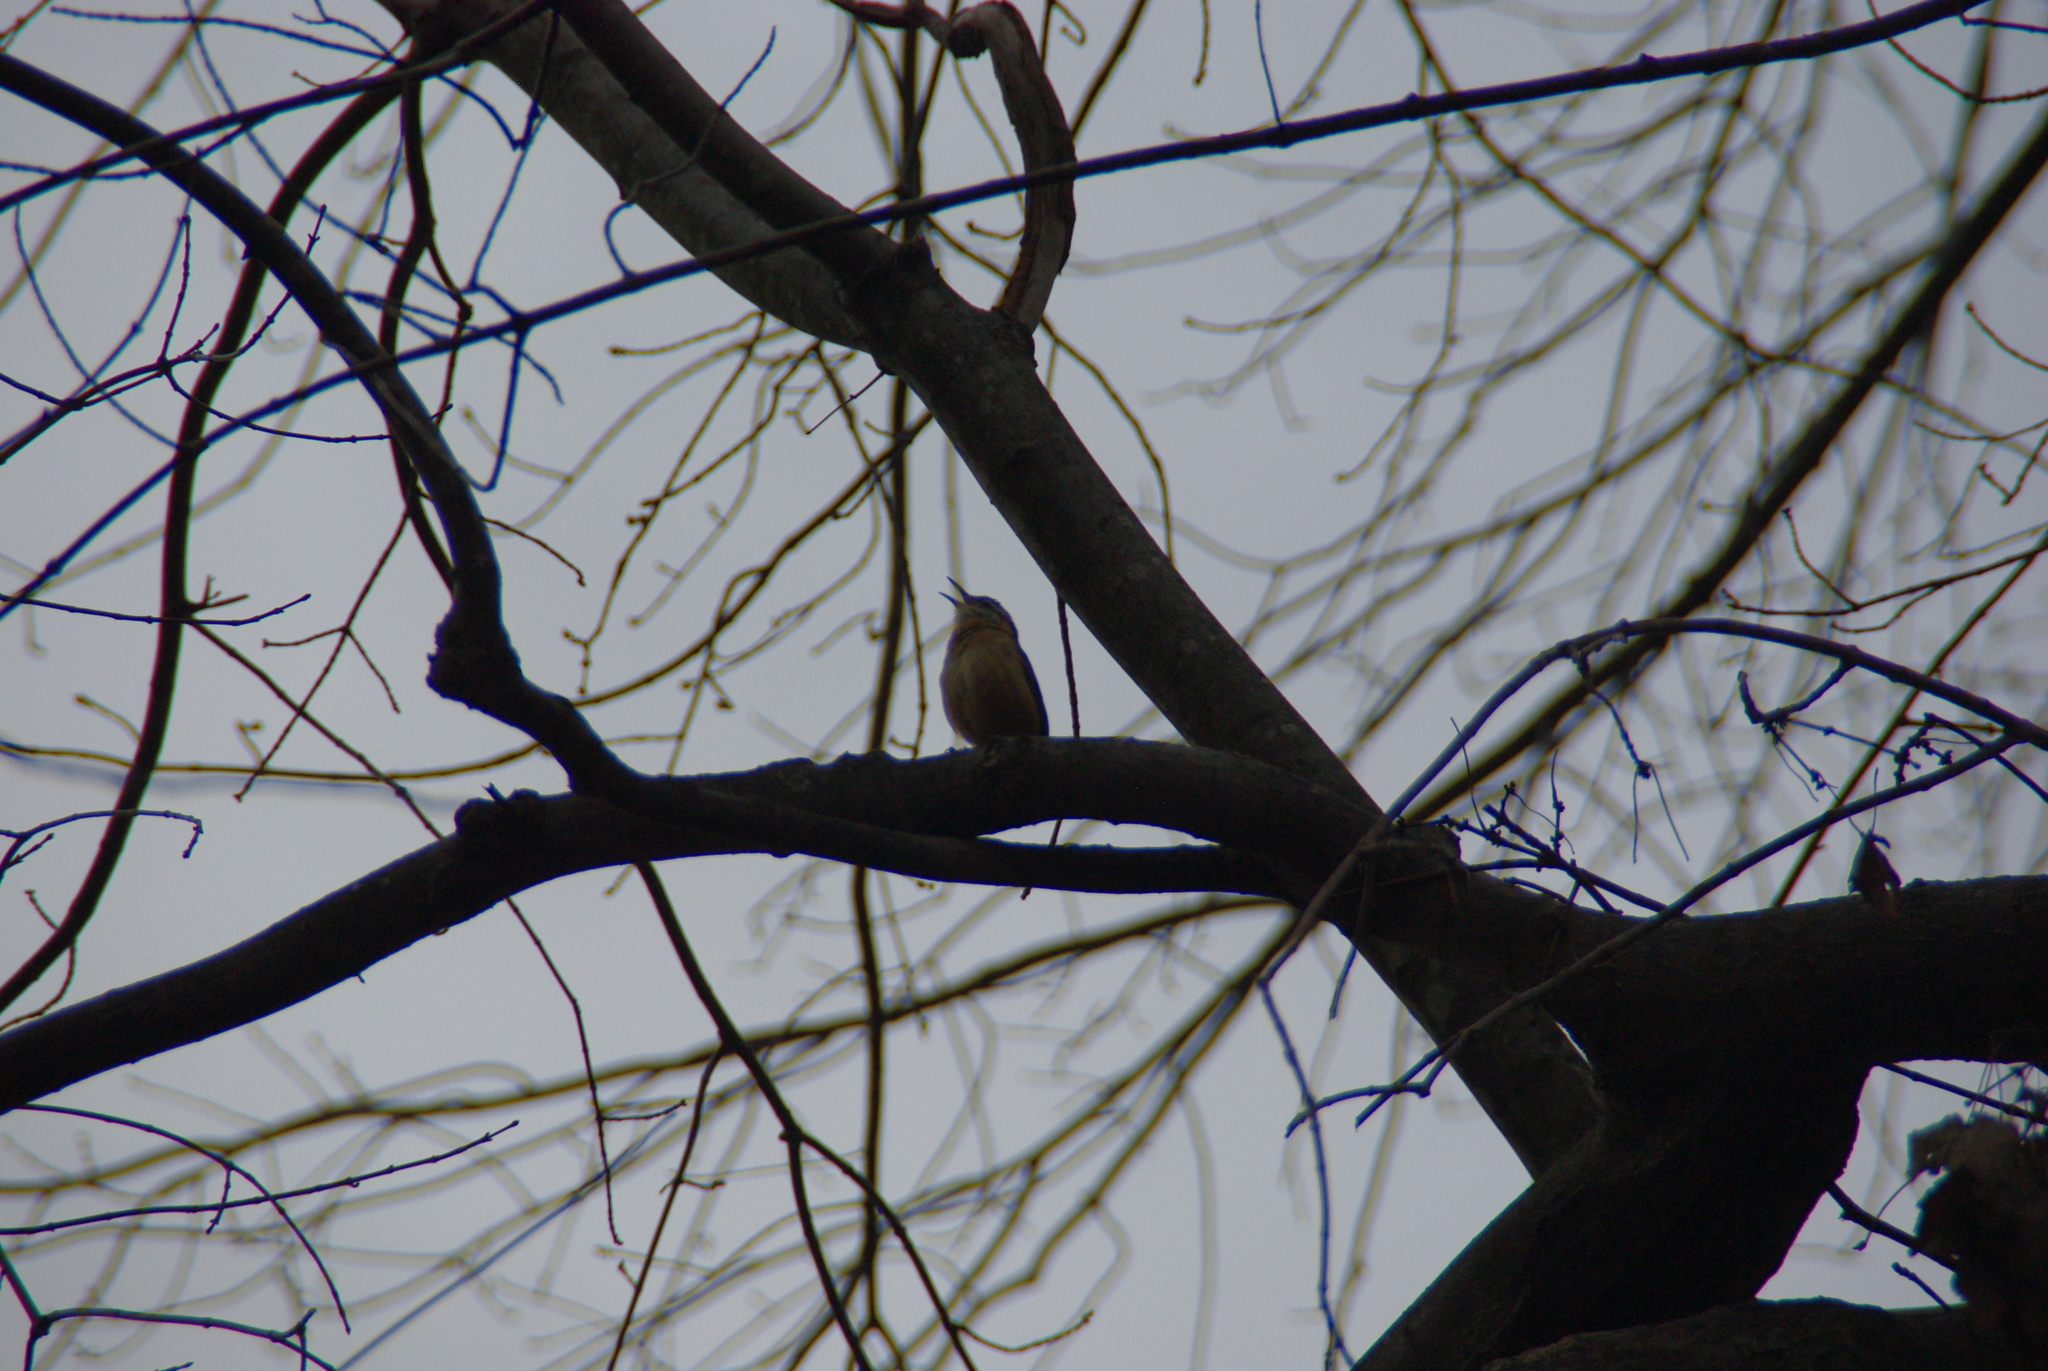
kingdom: Animalia
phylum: Chordata
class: Aves
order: Passeriformes
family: Troglodytidae
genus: Thryothorus
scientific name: Thryothorus ludovicianus
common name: Carolina wren
